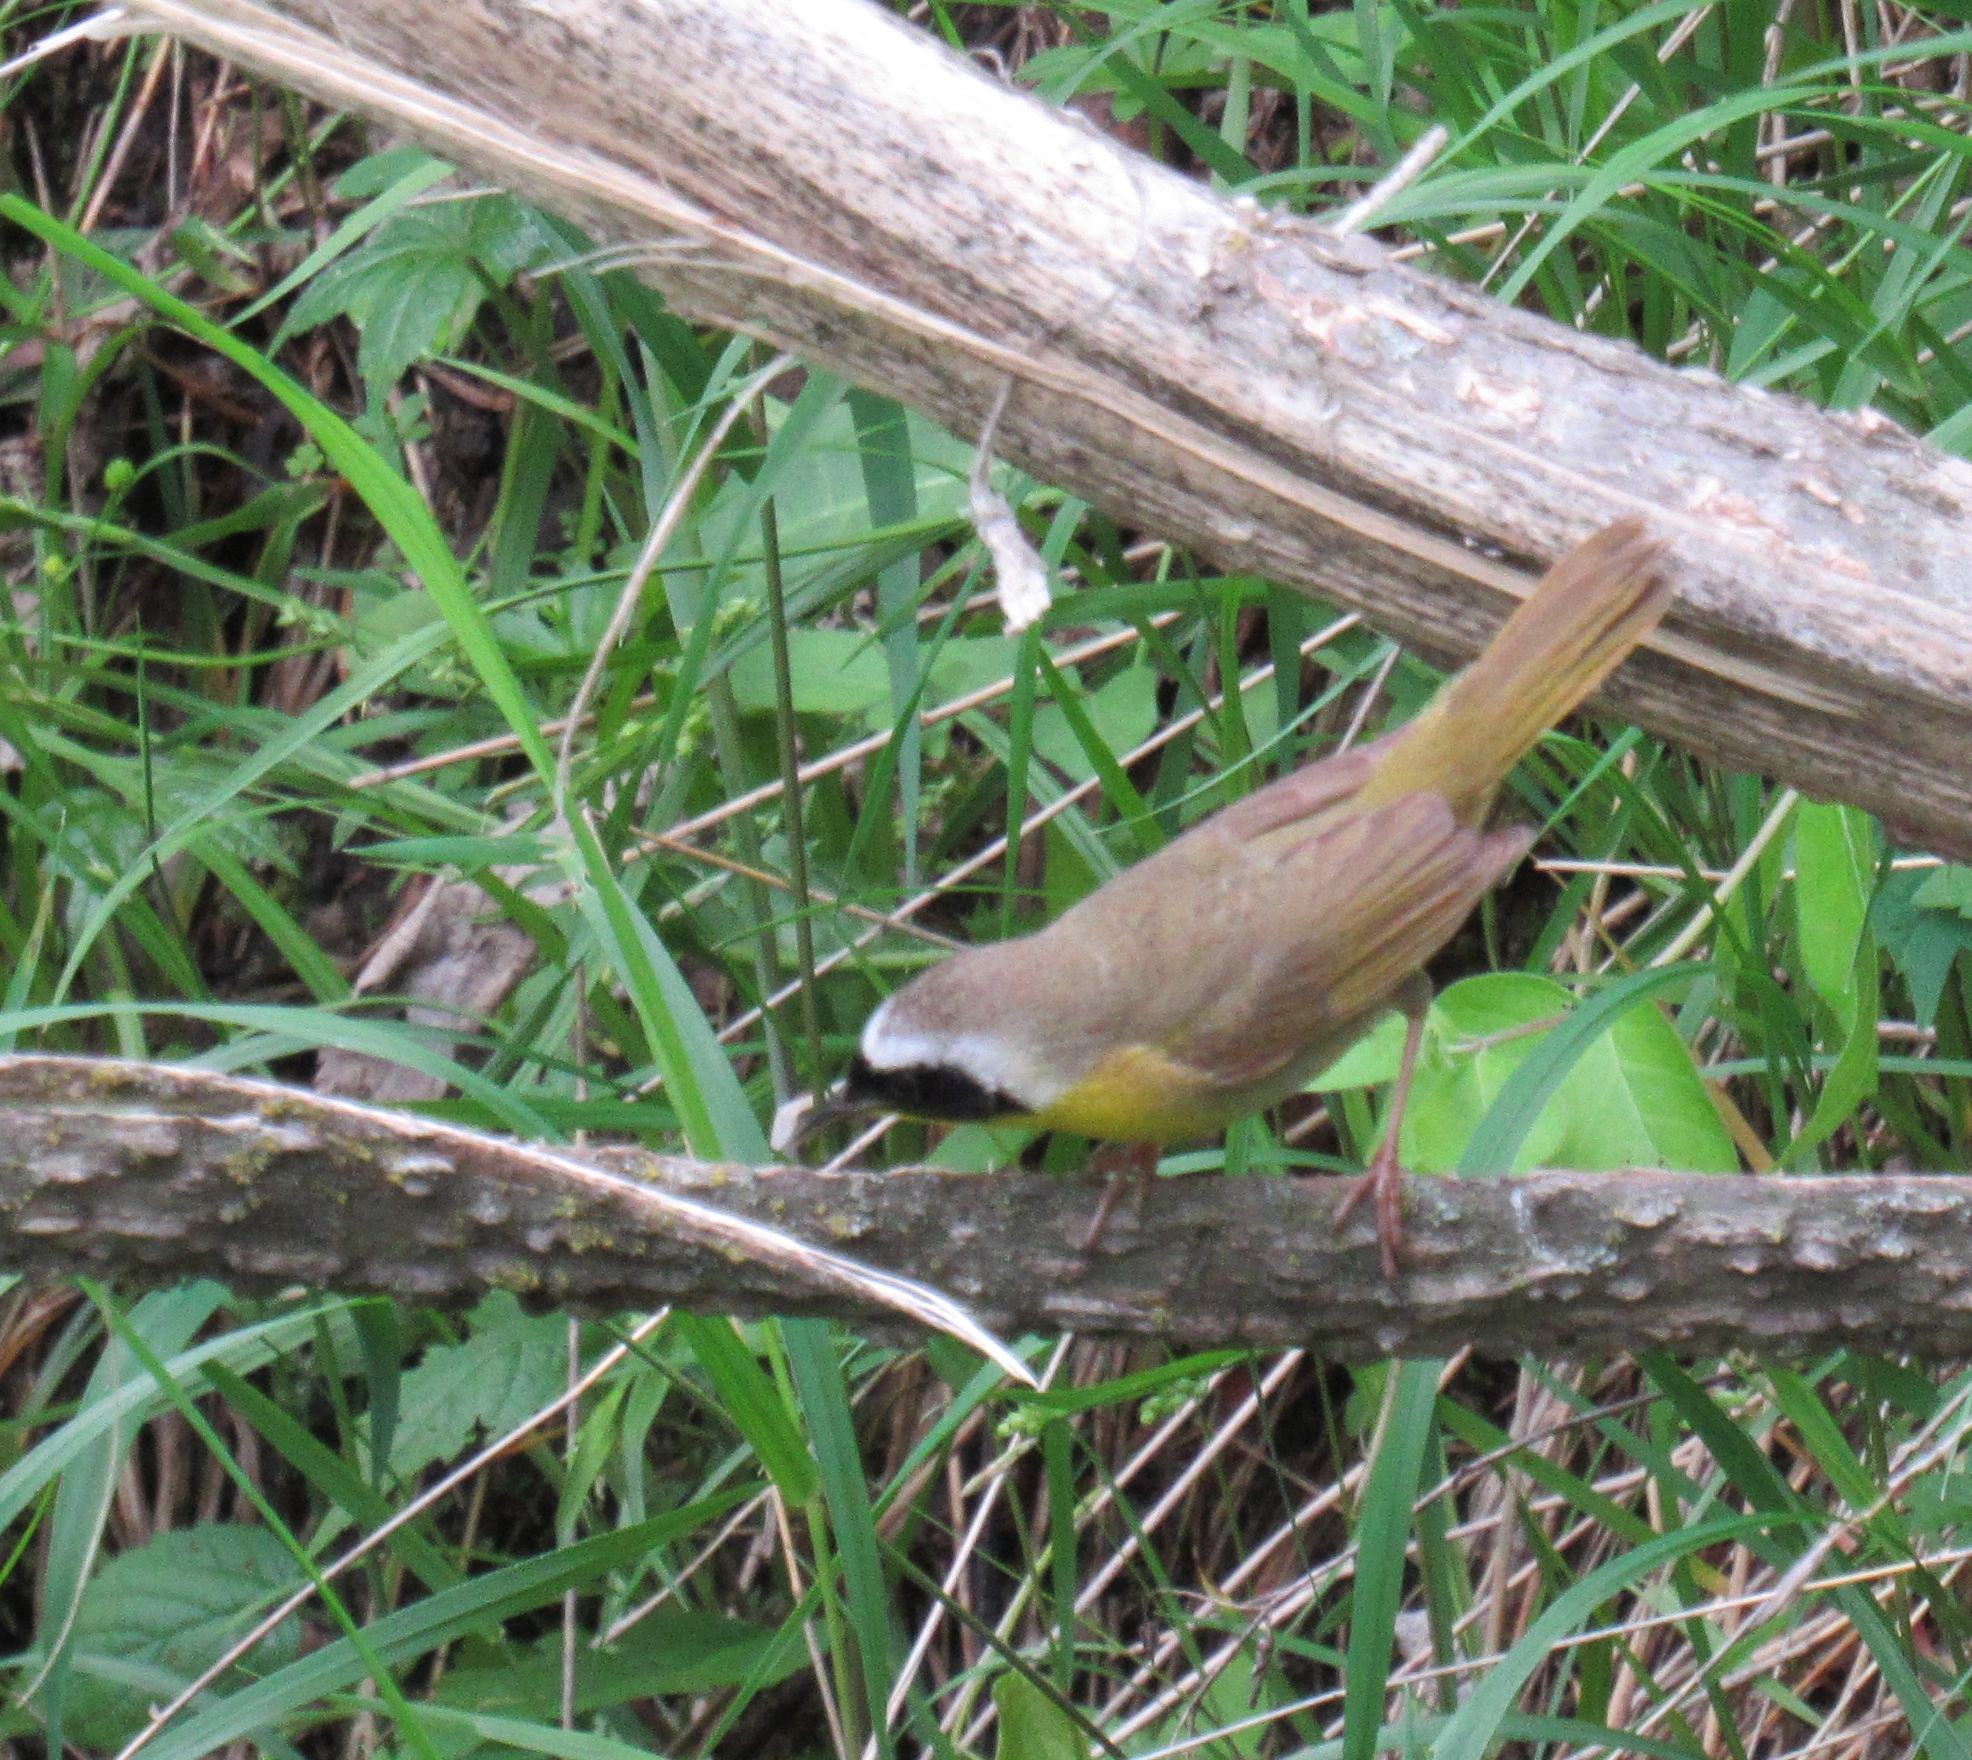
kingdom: Animalia
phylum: Chordata
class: Aves
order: Passeriformes
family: Parulidae
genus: Geothlypis
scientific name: Geothlypis trichas
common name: Common yellowthroat
